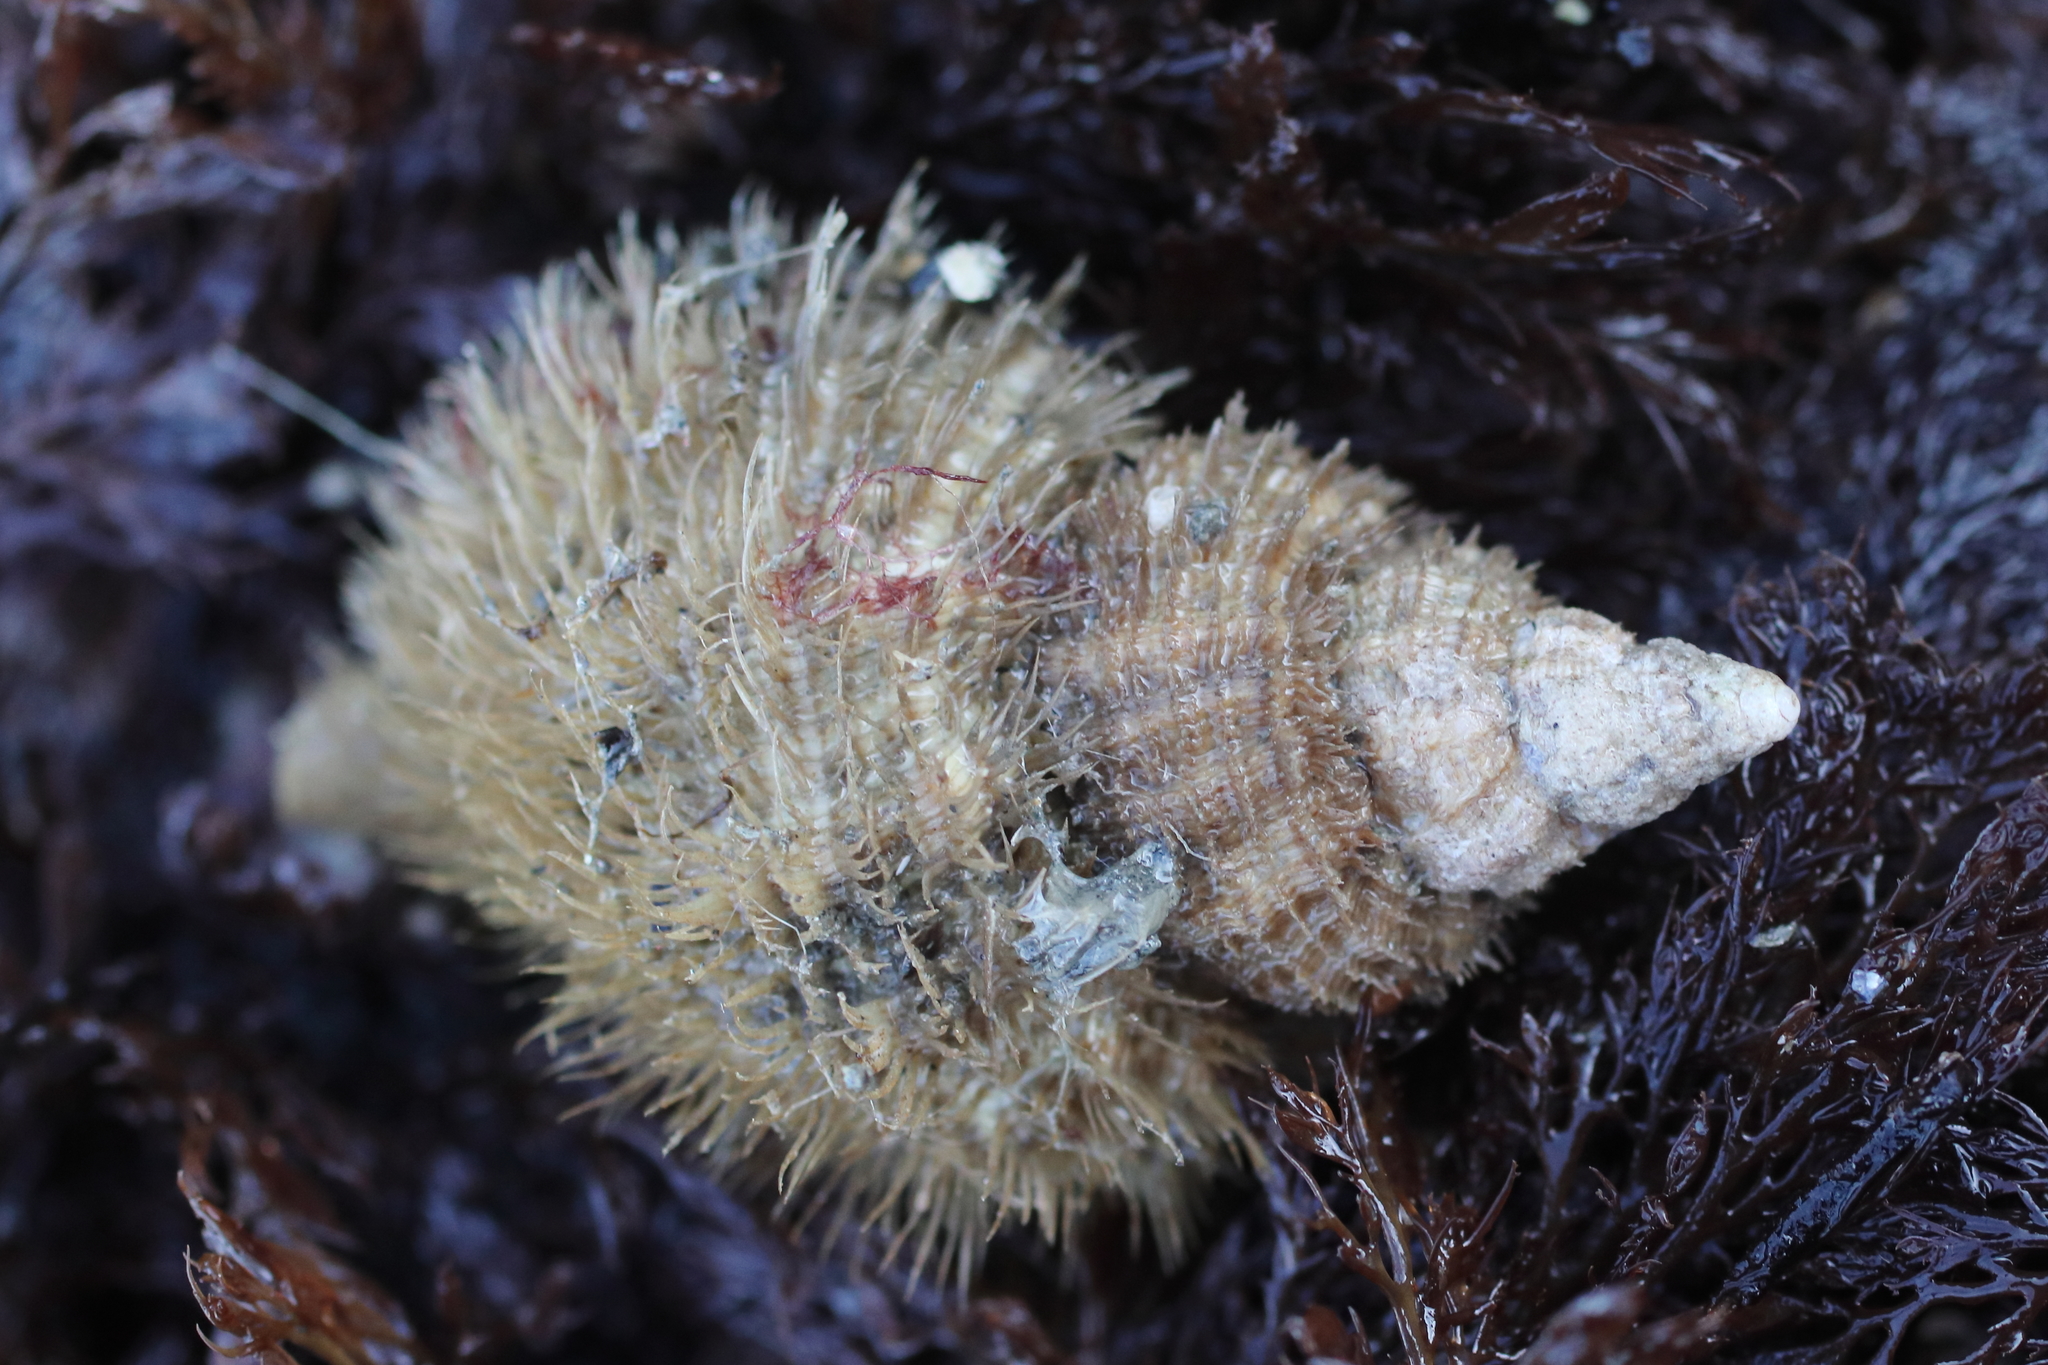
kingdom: Animalia
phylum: Mollusca
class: Gastropoda
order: Littorinimorpha
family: Cymatiidae
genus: Fusitriton
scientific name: Fusitriton oregonensis
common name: Oregon hairy triton
